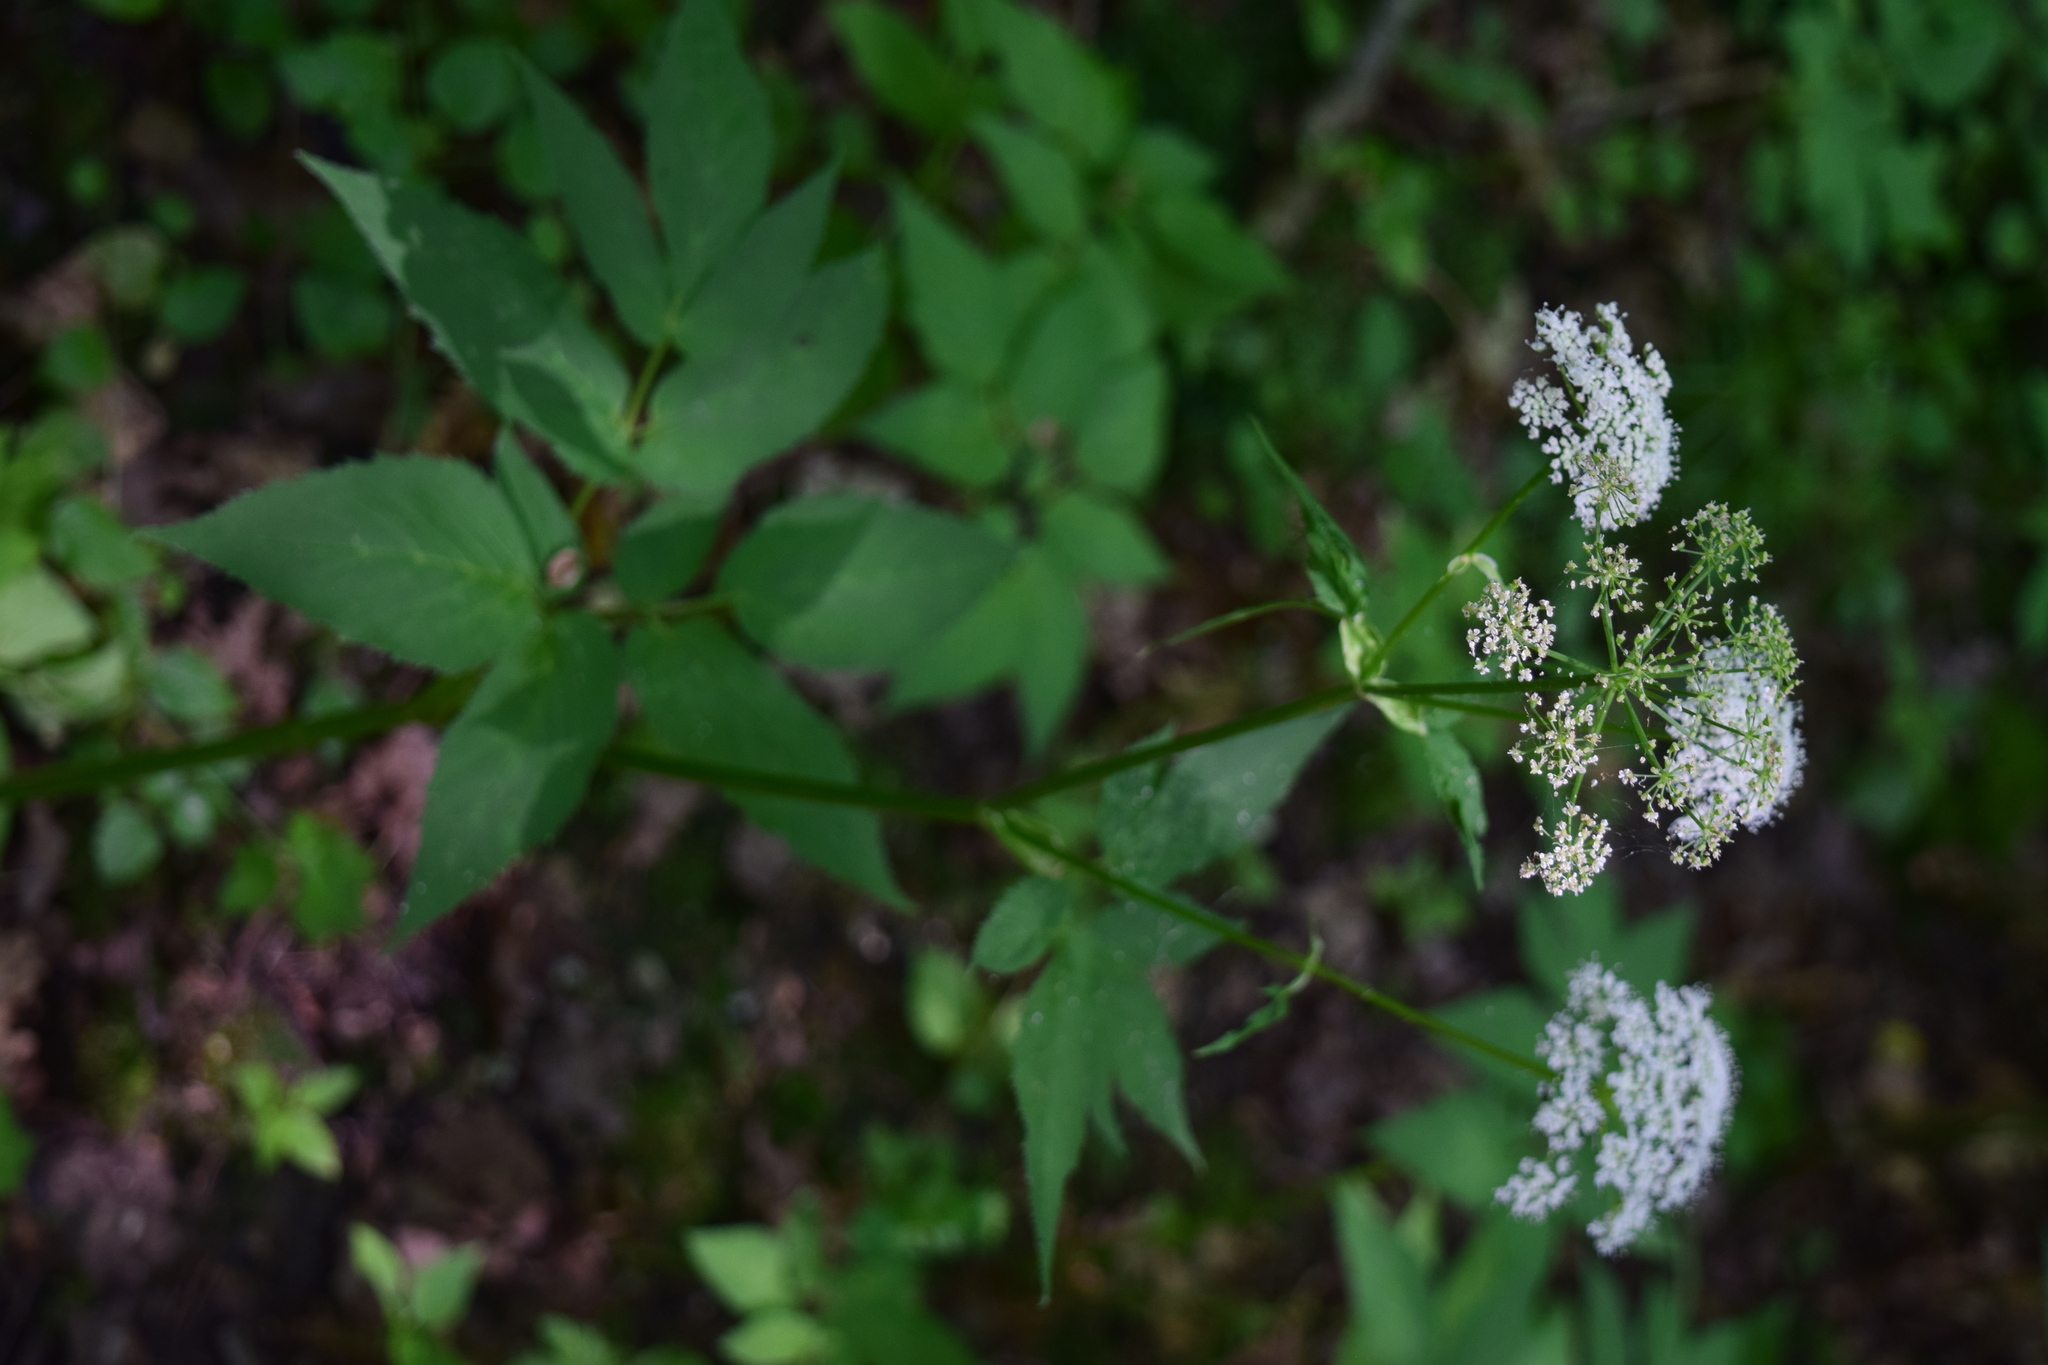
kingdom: Plantae
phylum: Tracheophyta
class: Magnoliopsida
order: Apiales
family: Apiaceae
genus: Aegopodium
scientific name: Aegopodium podagraria
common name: Ground-elder
